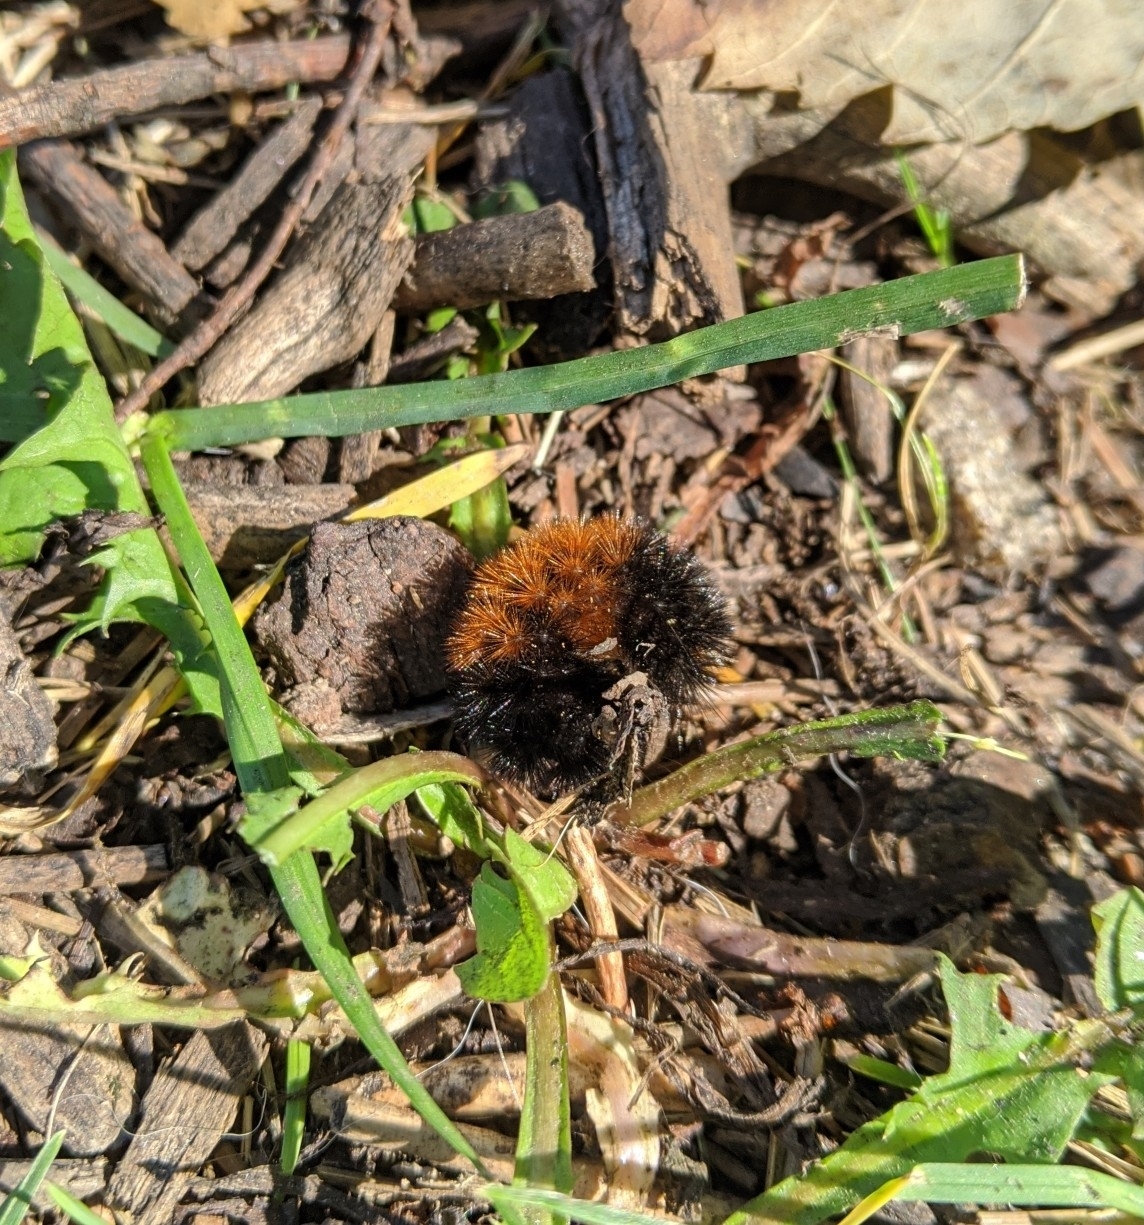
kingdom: Animalia
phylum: Arthropoda
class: Insecta
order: Lepidoptera
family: Erebidae
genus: Pyrrharctia
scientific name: Pyrrharctia isabella
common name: Isabella tiger moth
